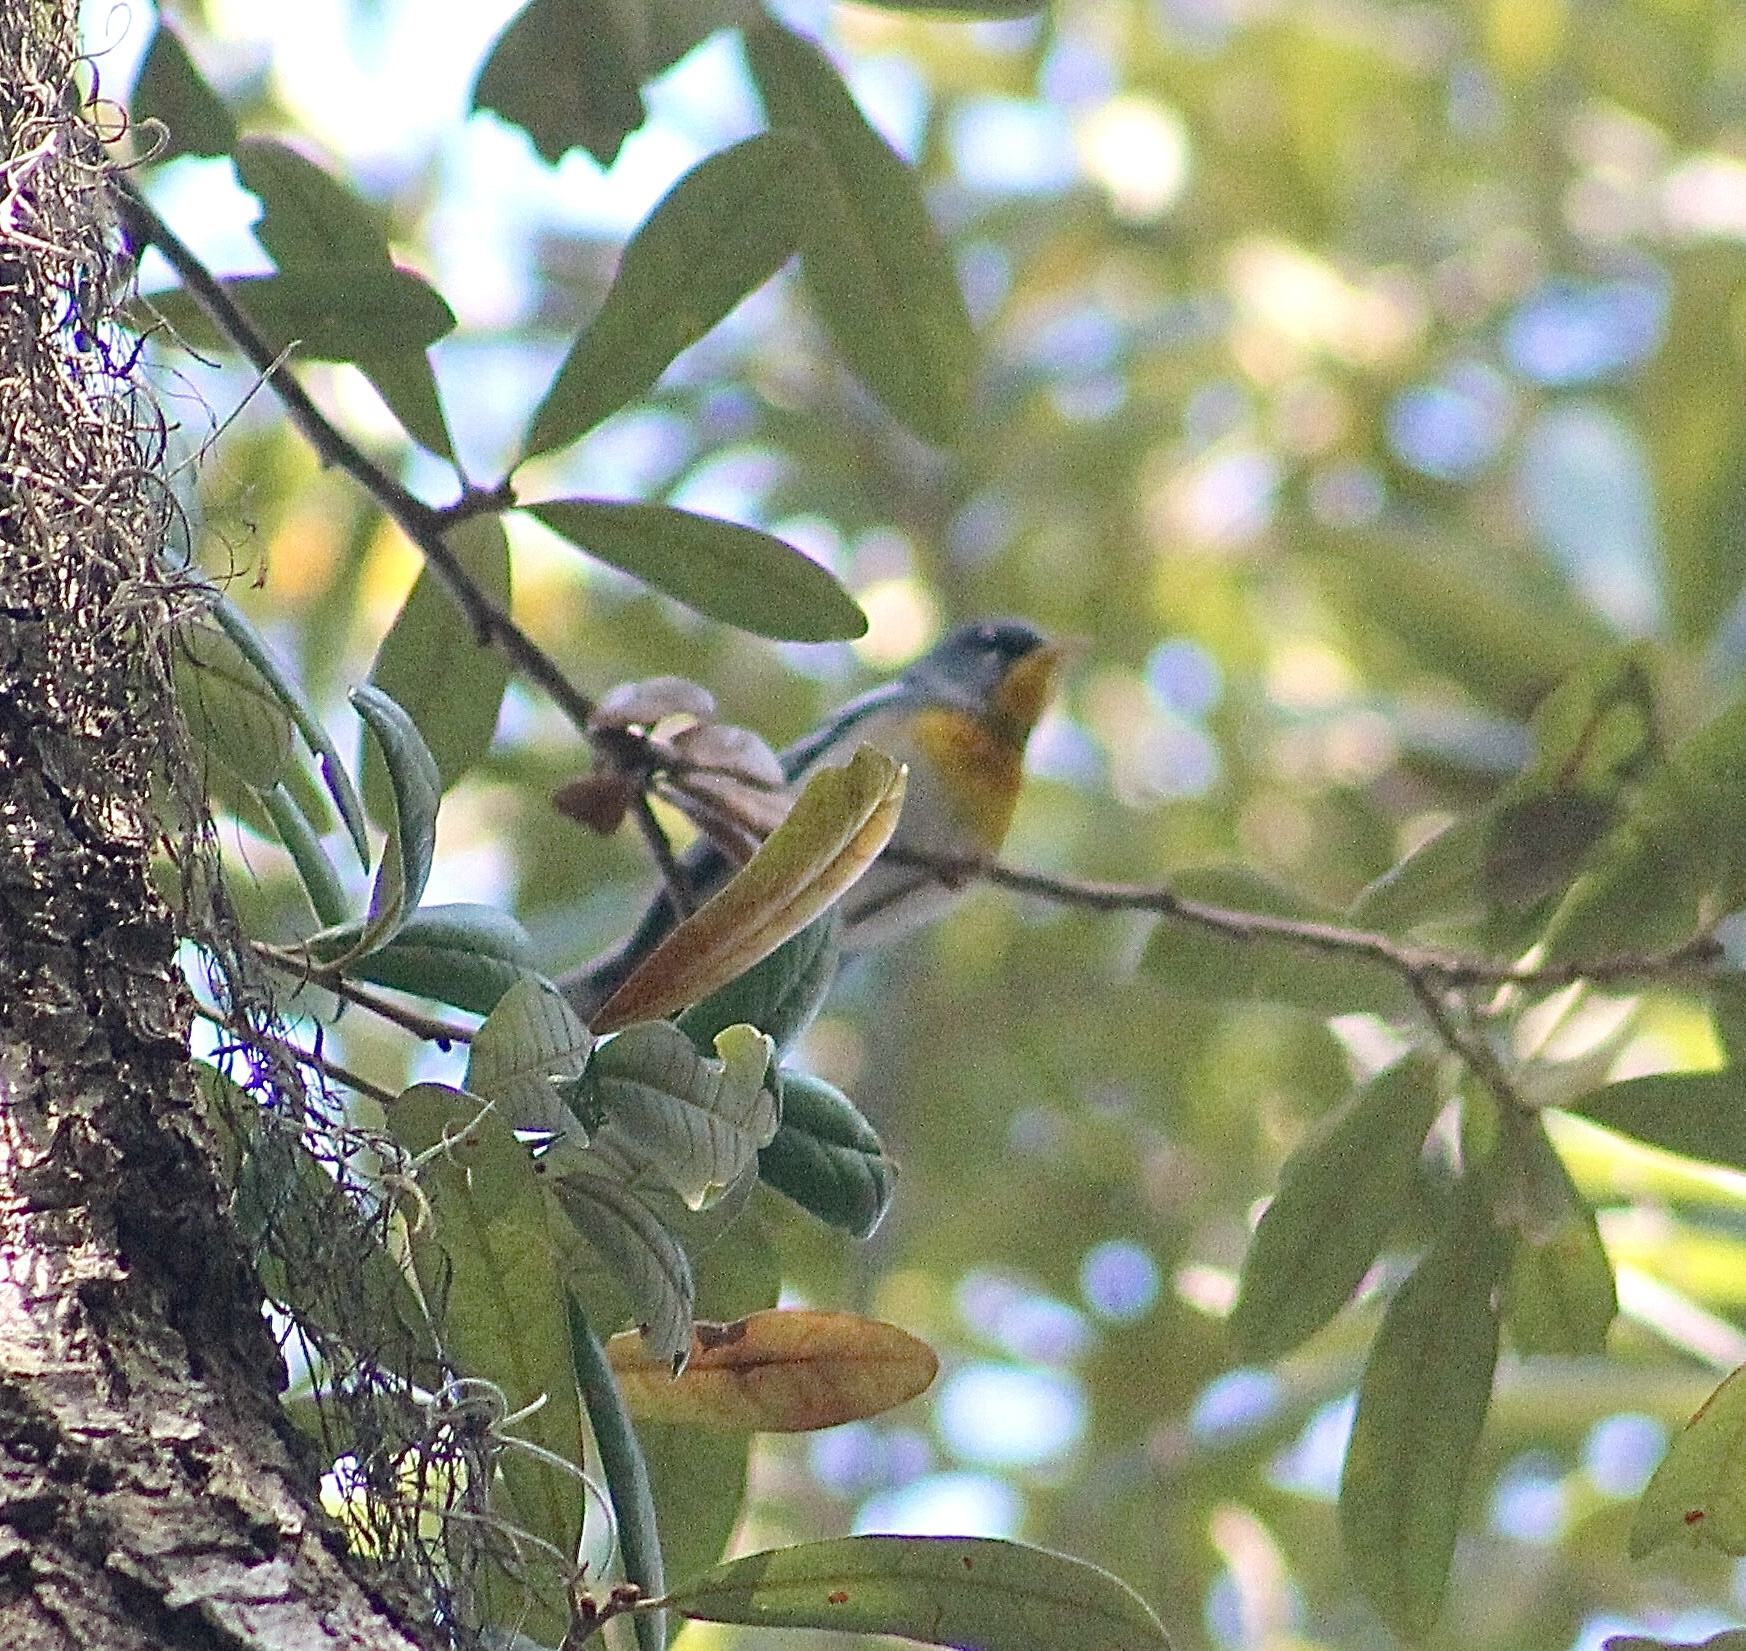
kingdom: Animalia
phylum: Chordata
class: Aves
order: Passeriformes
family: Parulidae
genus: Setophaga
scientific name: Setophaga americana
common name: Northern parula
